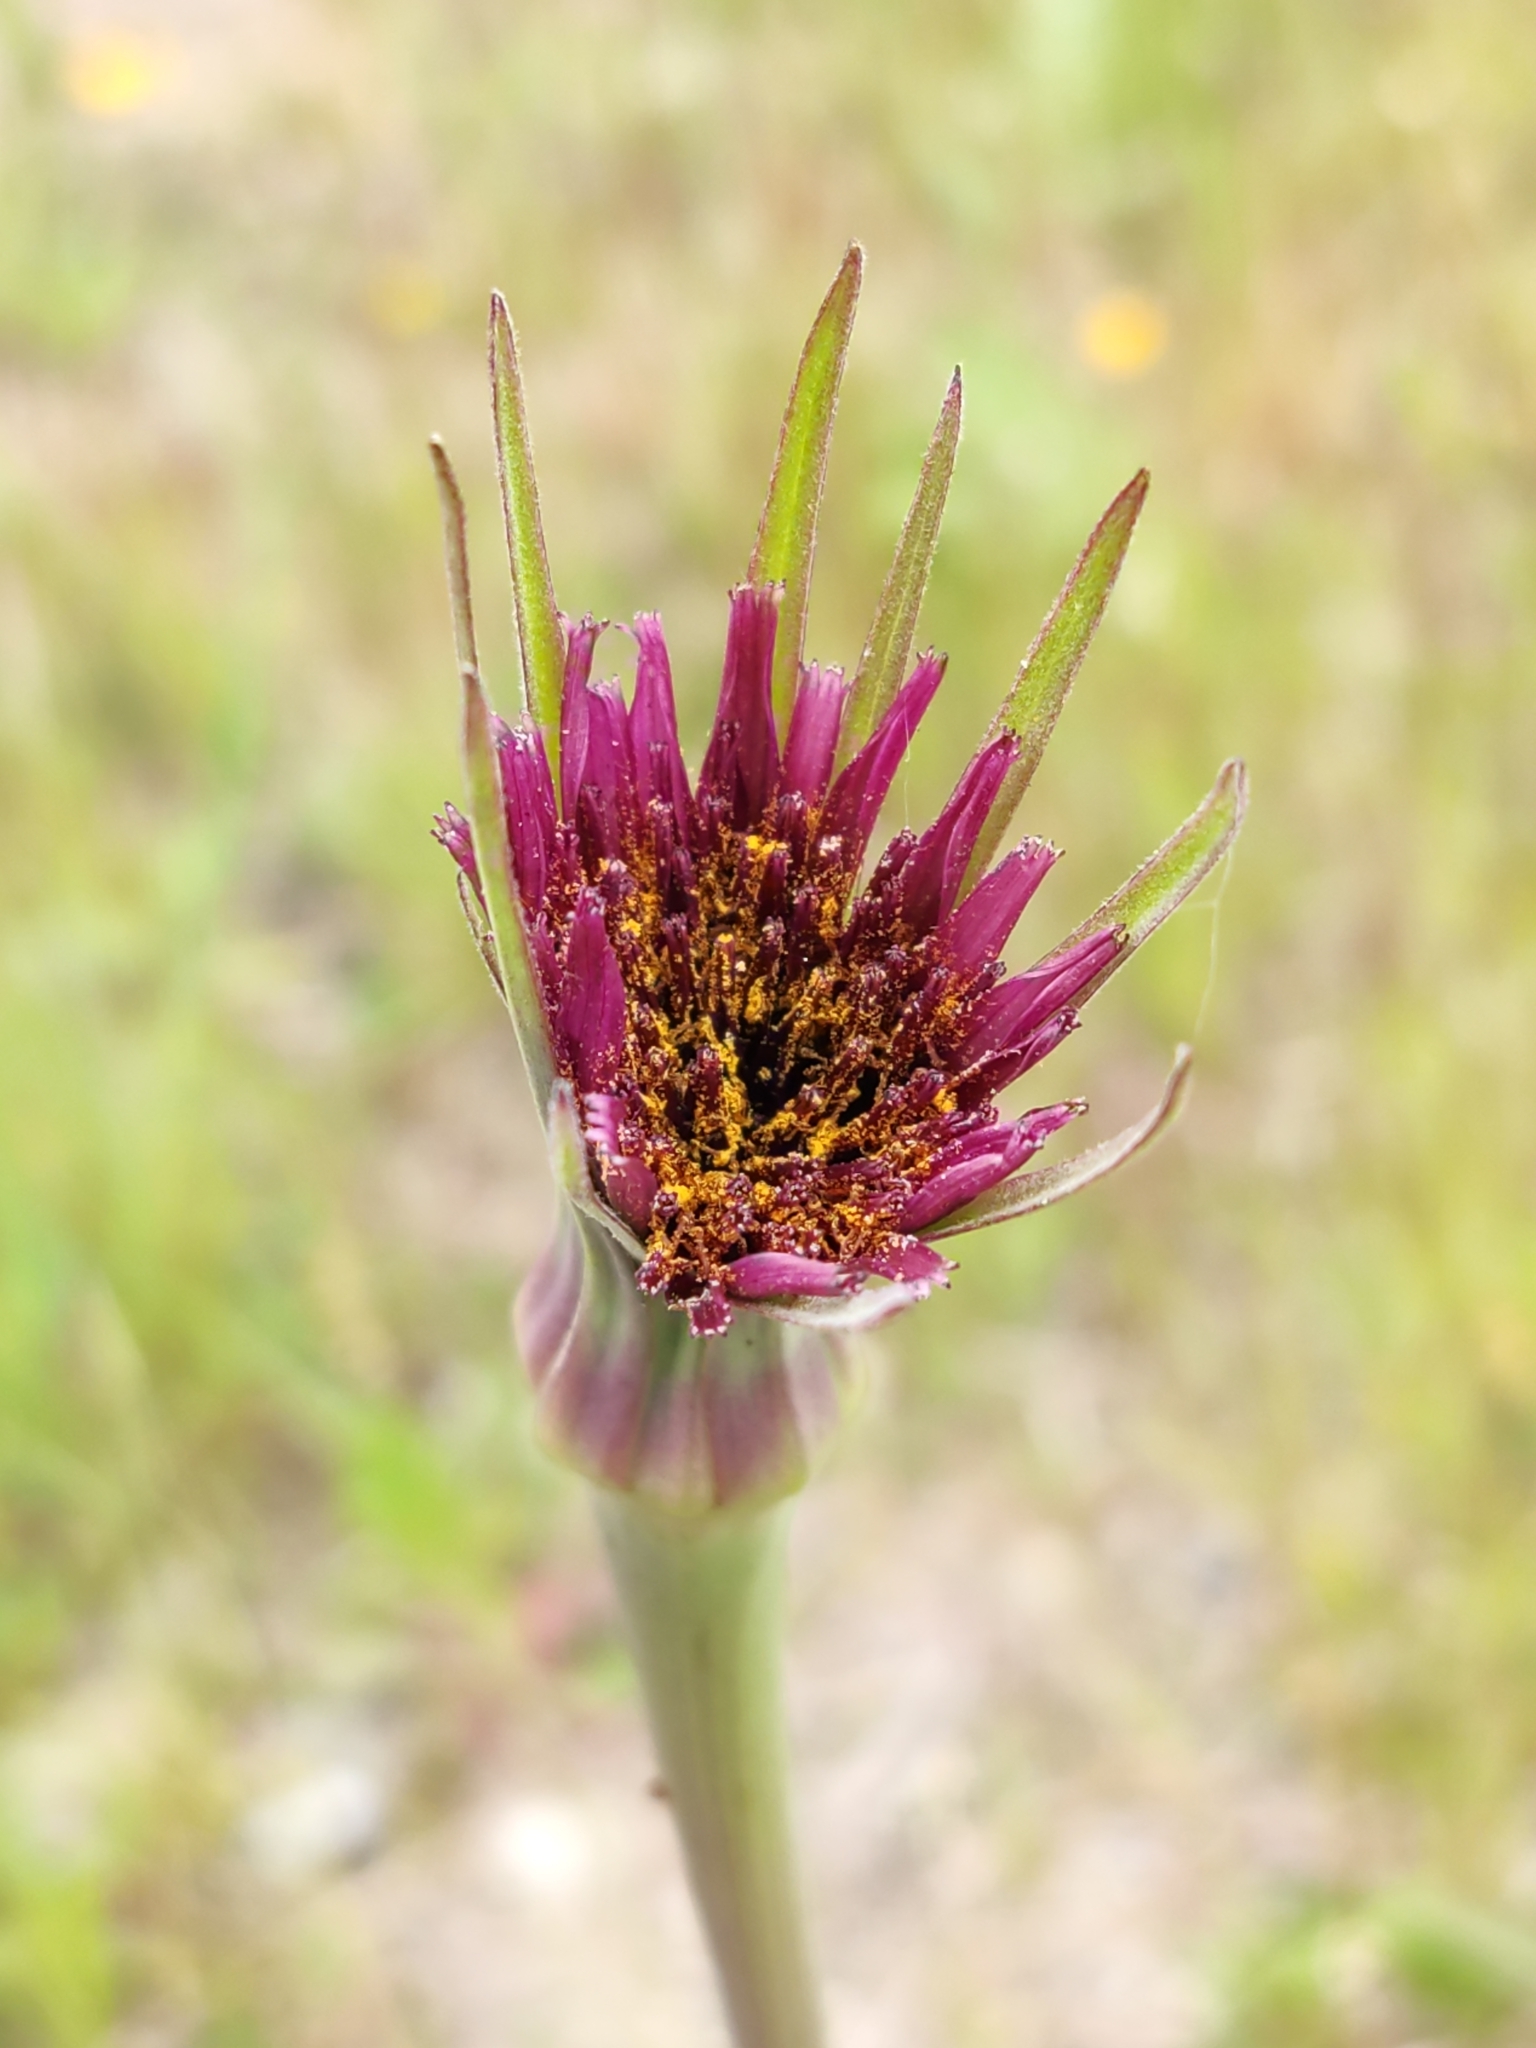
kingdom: Plantae
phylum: Tracheophyta
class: Magnoliopsida
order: Asterales
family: Asteraceae
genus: Tragopogon
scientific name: Tragopogon porrifolius
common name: Salsify
